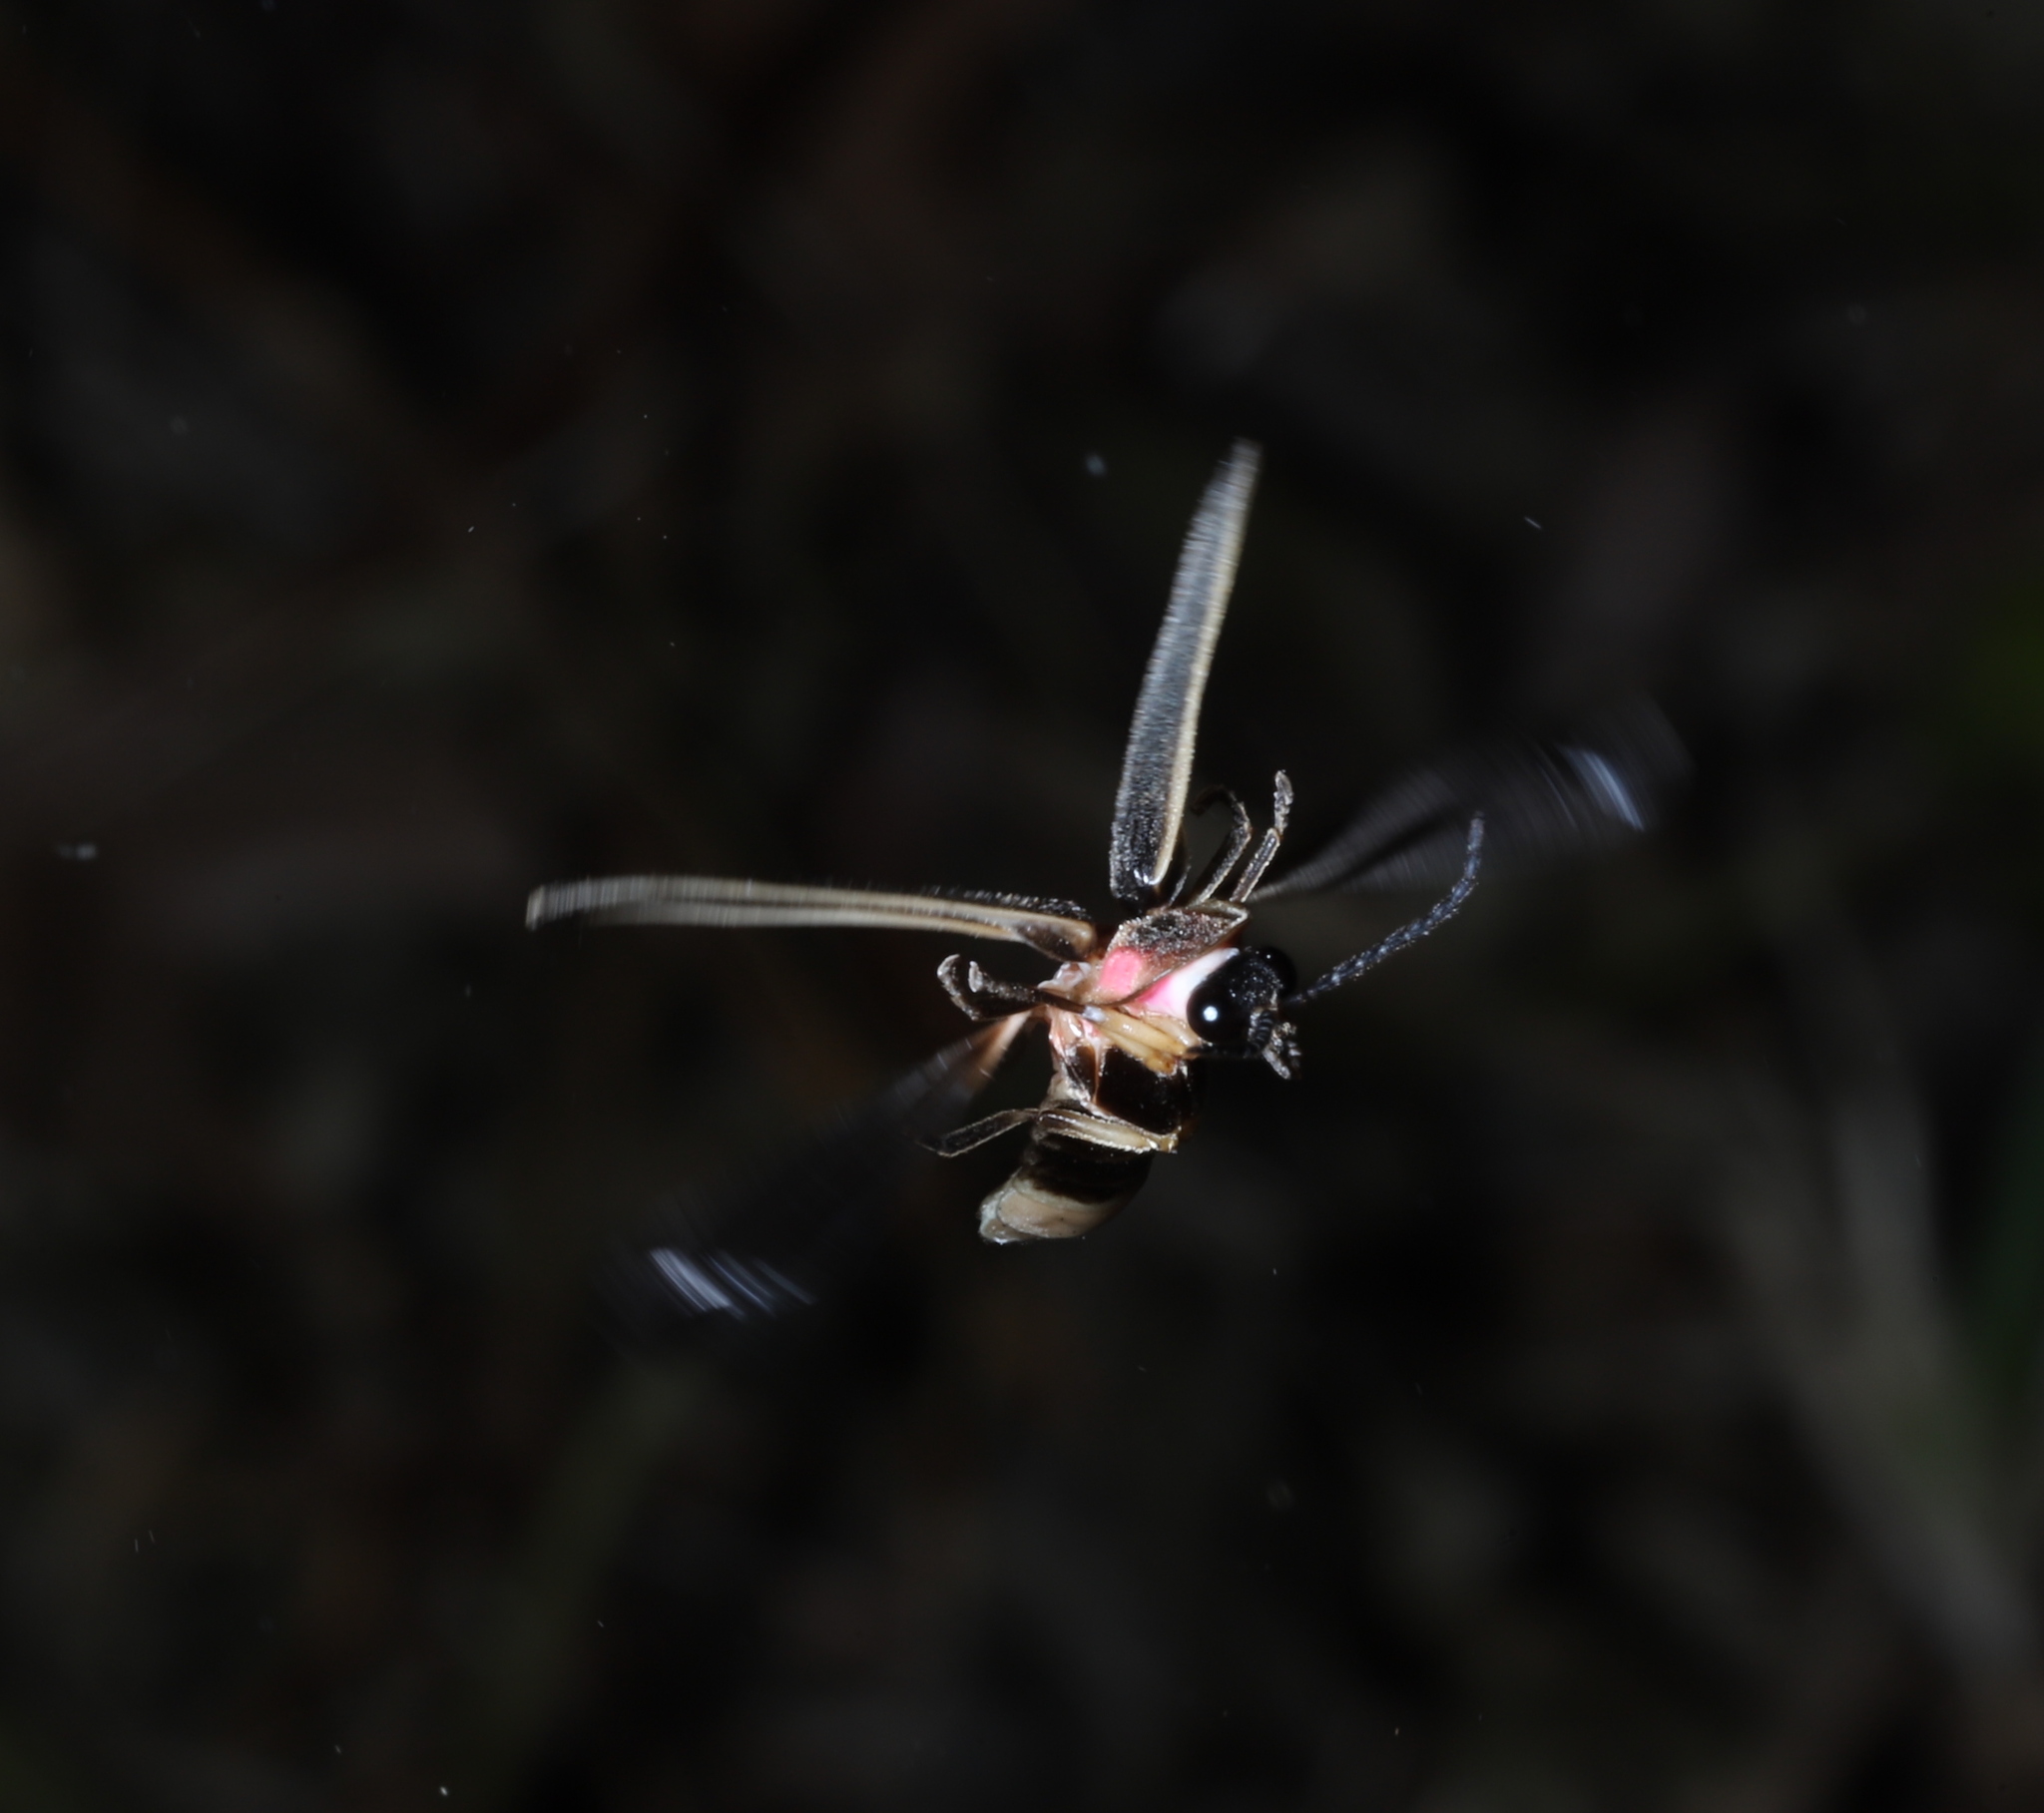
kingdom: Animalia
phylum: Arthropoda
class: Insecta
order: Coleoptera
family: Lampyridae
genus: Photinus
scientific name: Photinus pyralis
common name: Big dipper firefly
